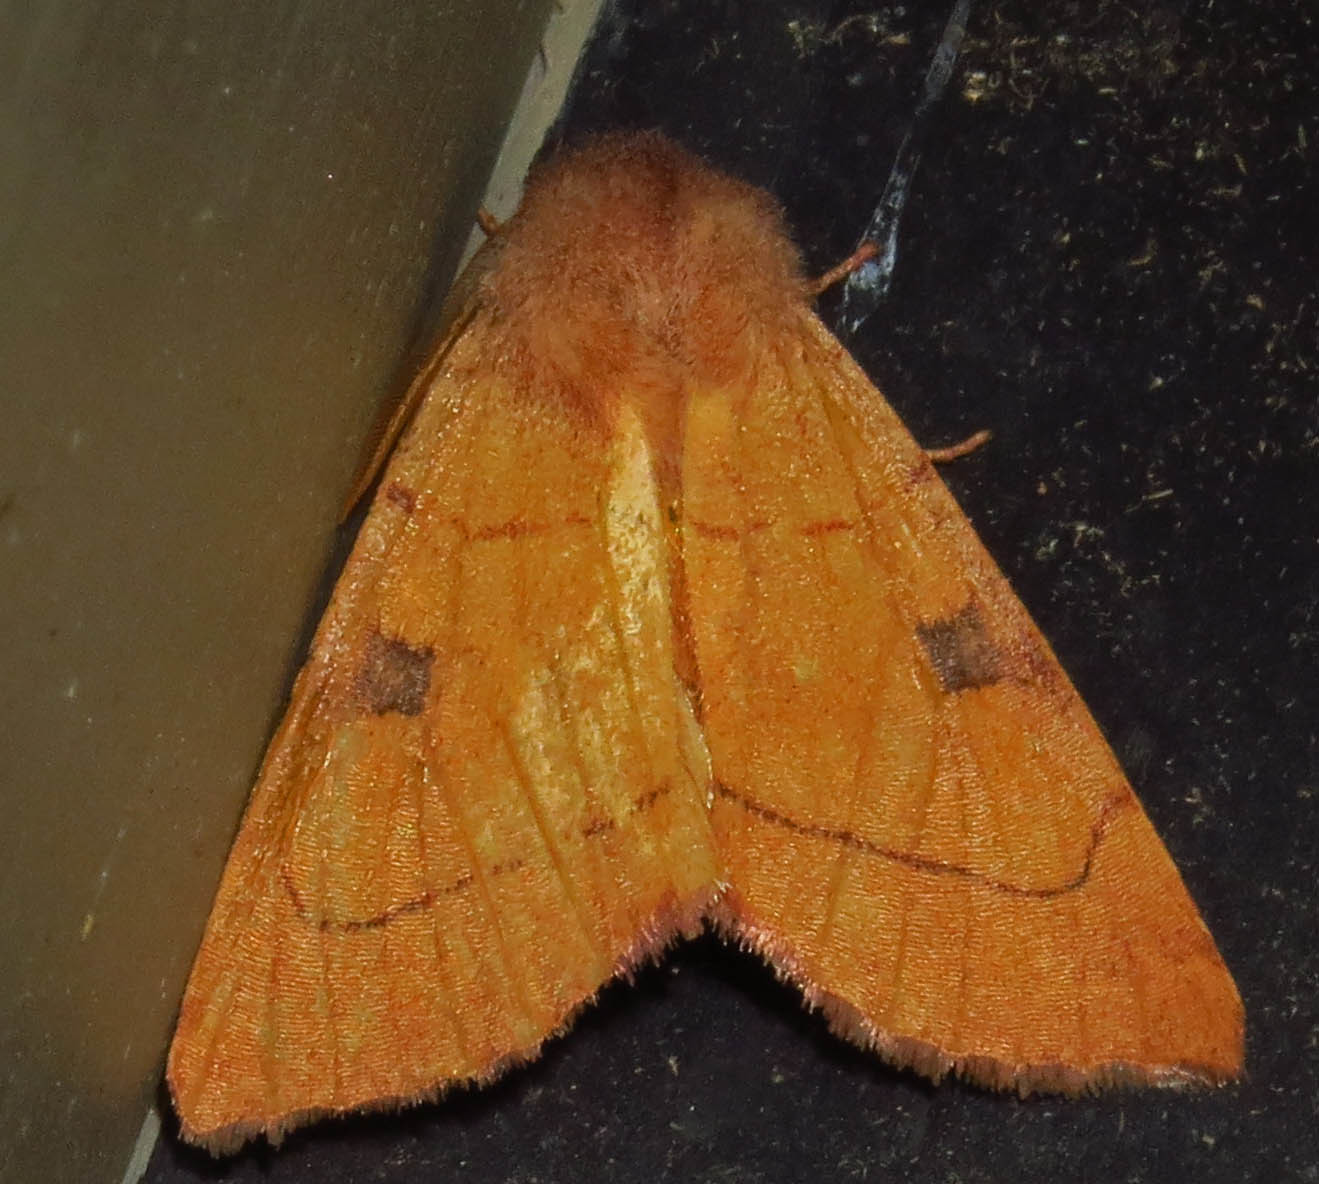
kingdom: Animalia
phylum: Arthropoda
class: Insecta
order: Lepidoptera
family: Noctuidae
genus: Choephora
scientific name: Choephora fungorum
